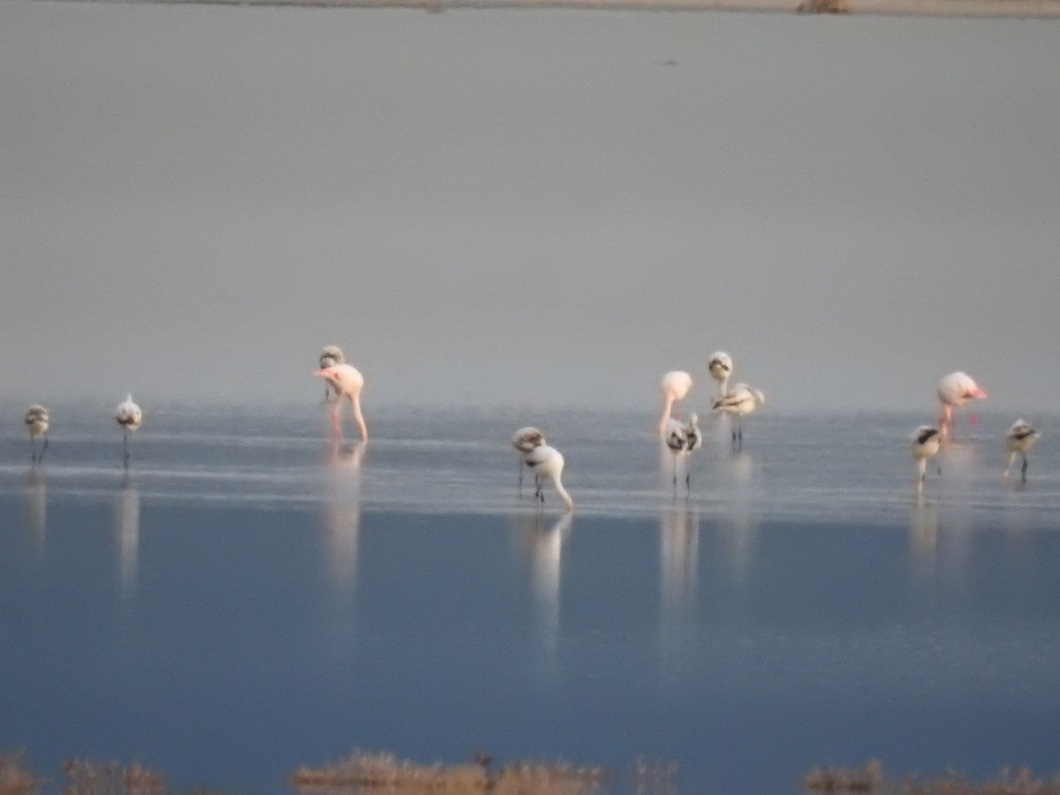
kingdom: Animalia
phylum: Chordata
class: Aves
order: Phoenicopteriformes
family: Phoenicopteridae
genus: Phoenicopterus
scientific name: Phoenicopterus roseus
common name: Greater flamingo
